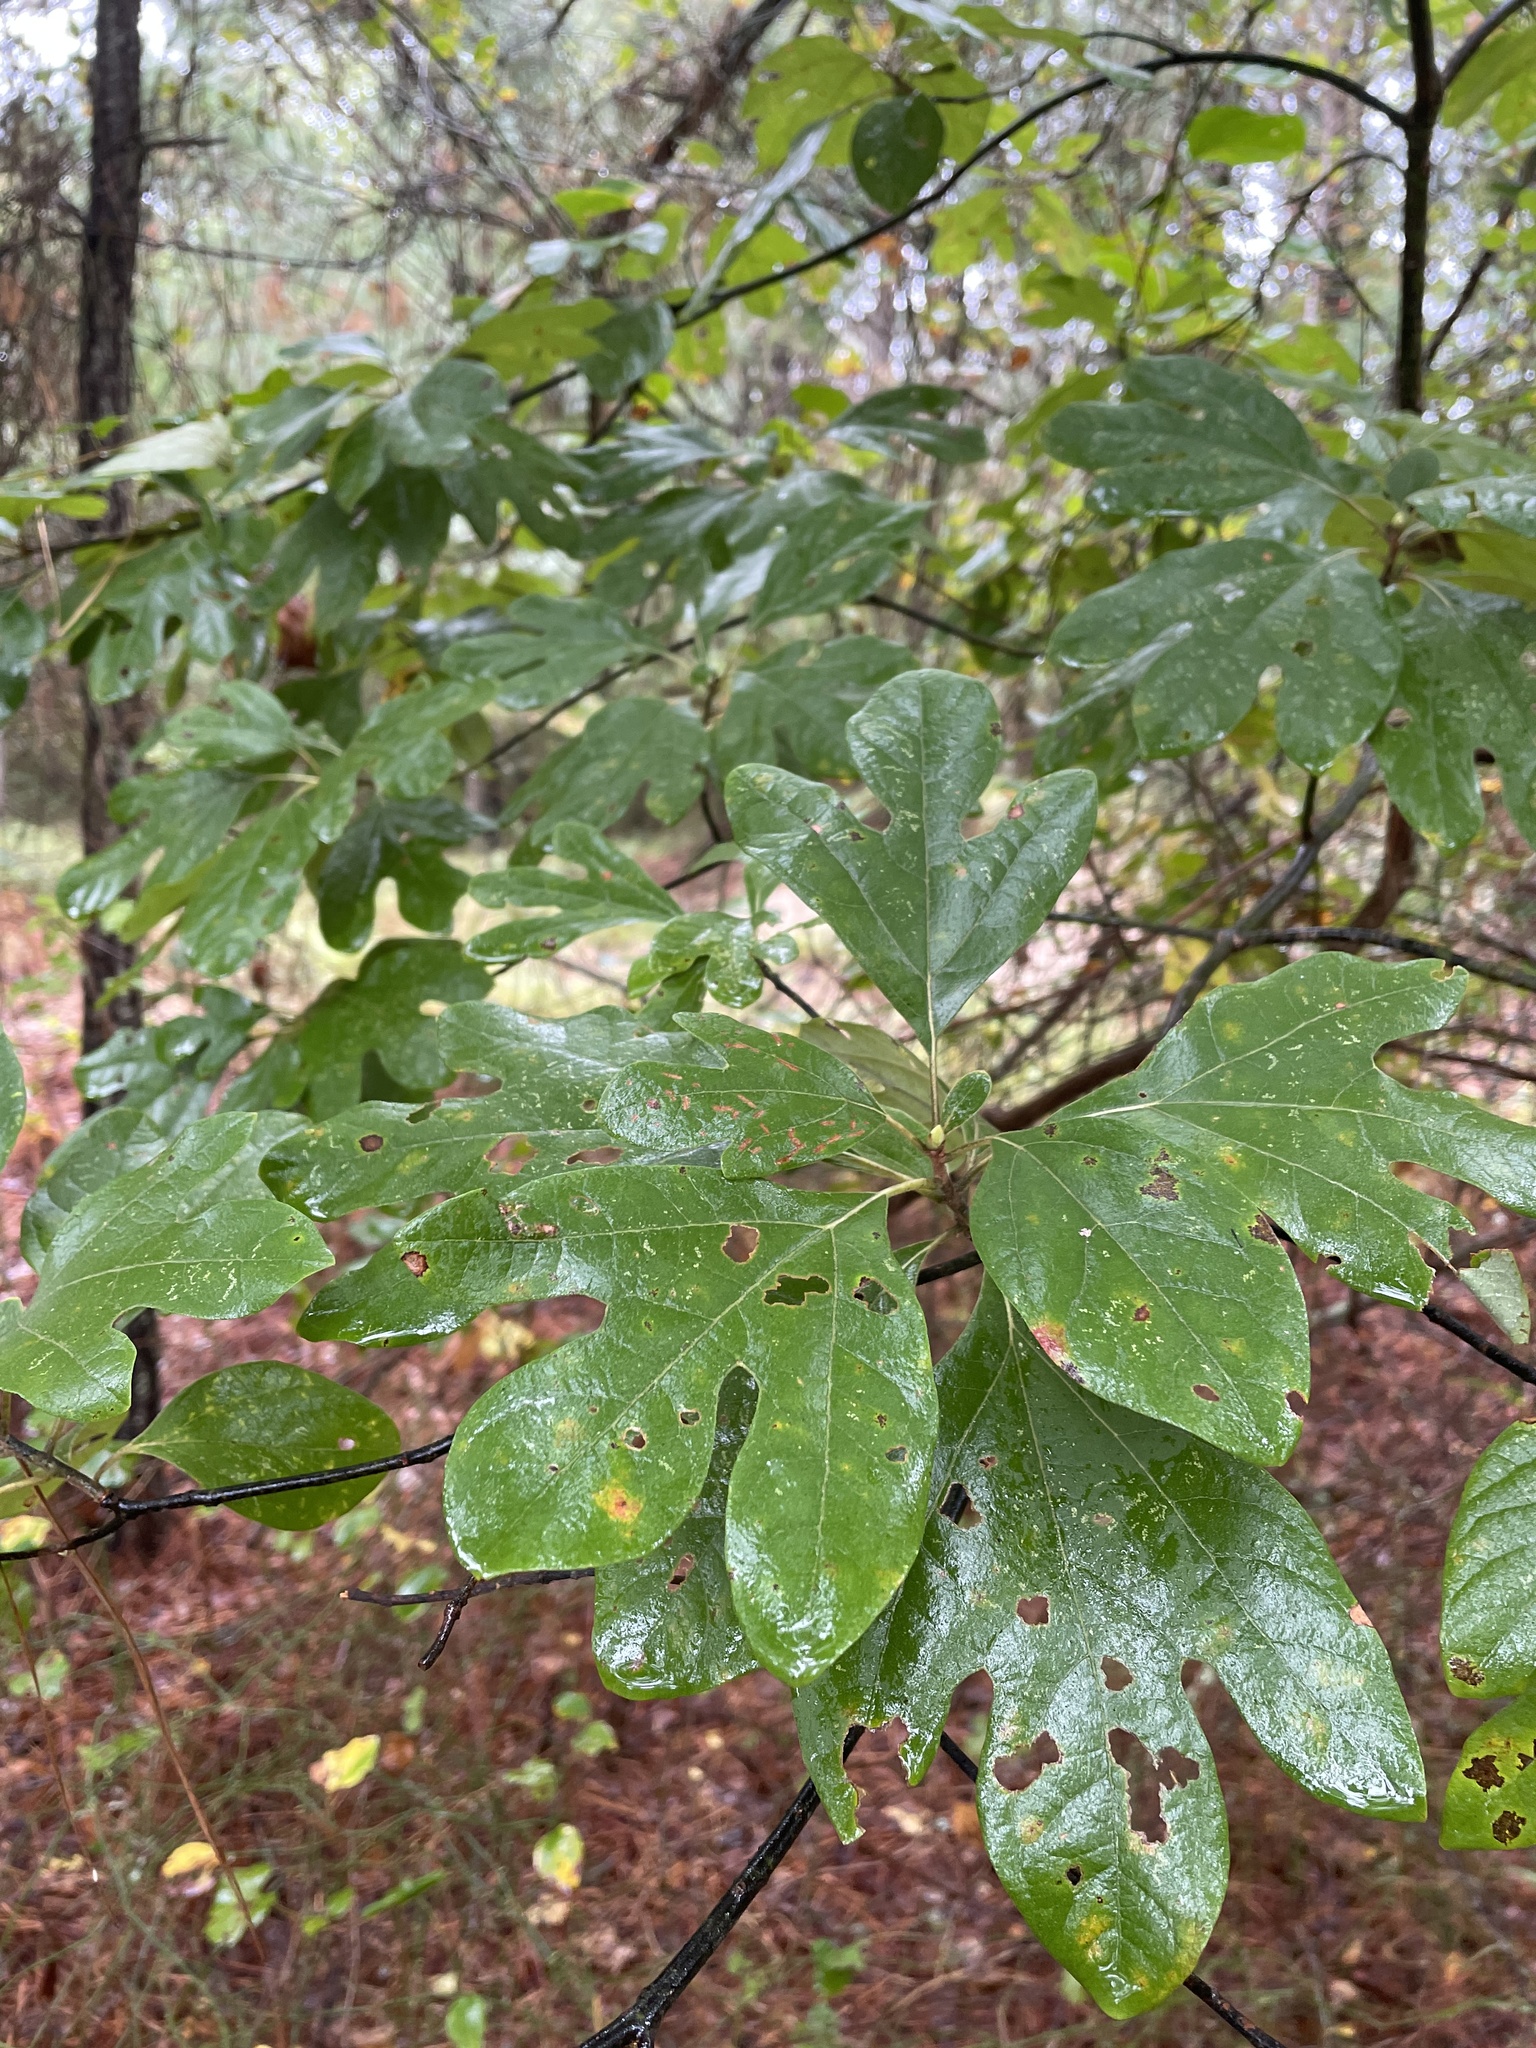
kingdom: Plantae
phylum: Tracheophyta
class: Magnoliopsida
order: Laurales
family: Lauraceae
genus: Sassafras
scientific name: Sassafras albidum
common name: Sassafras
